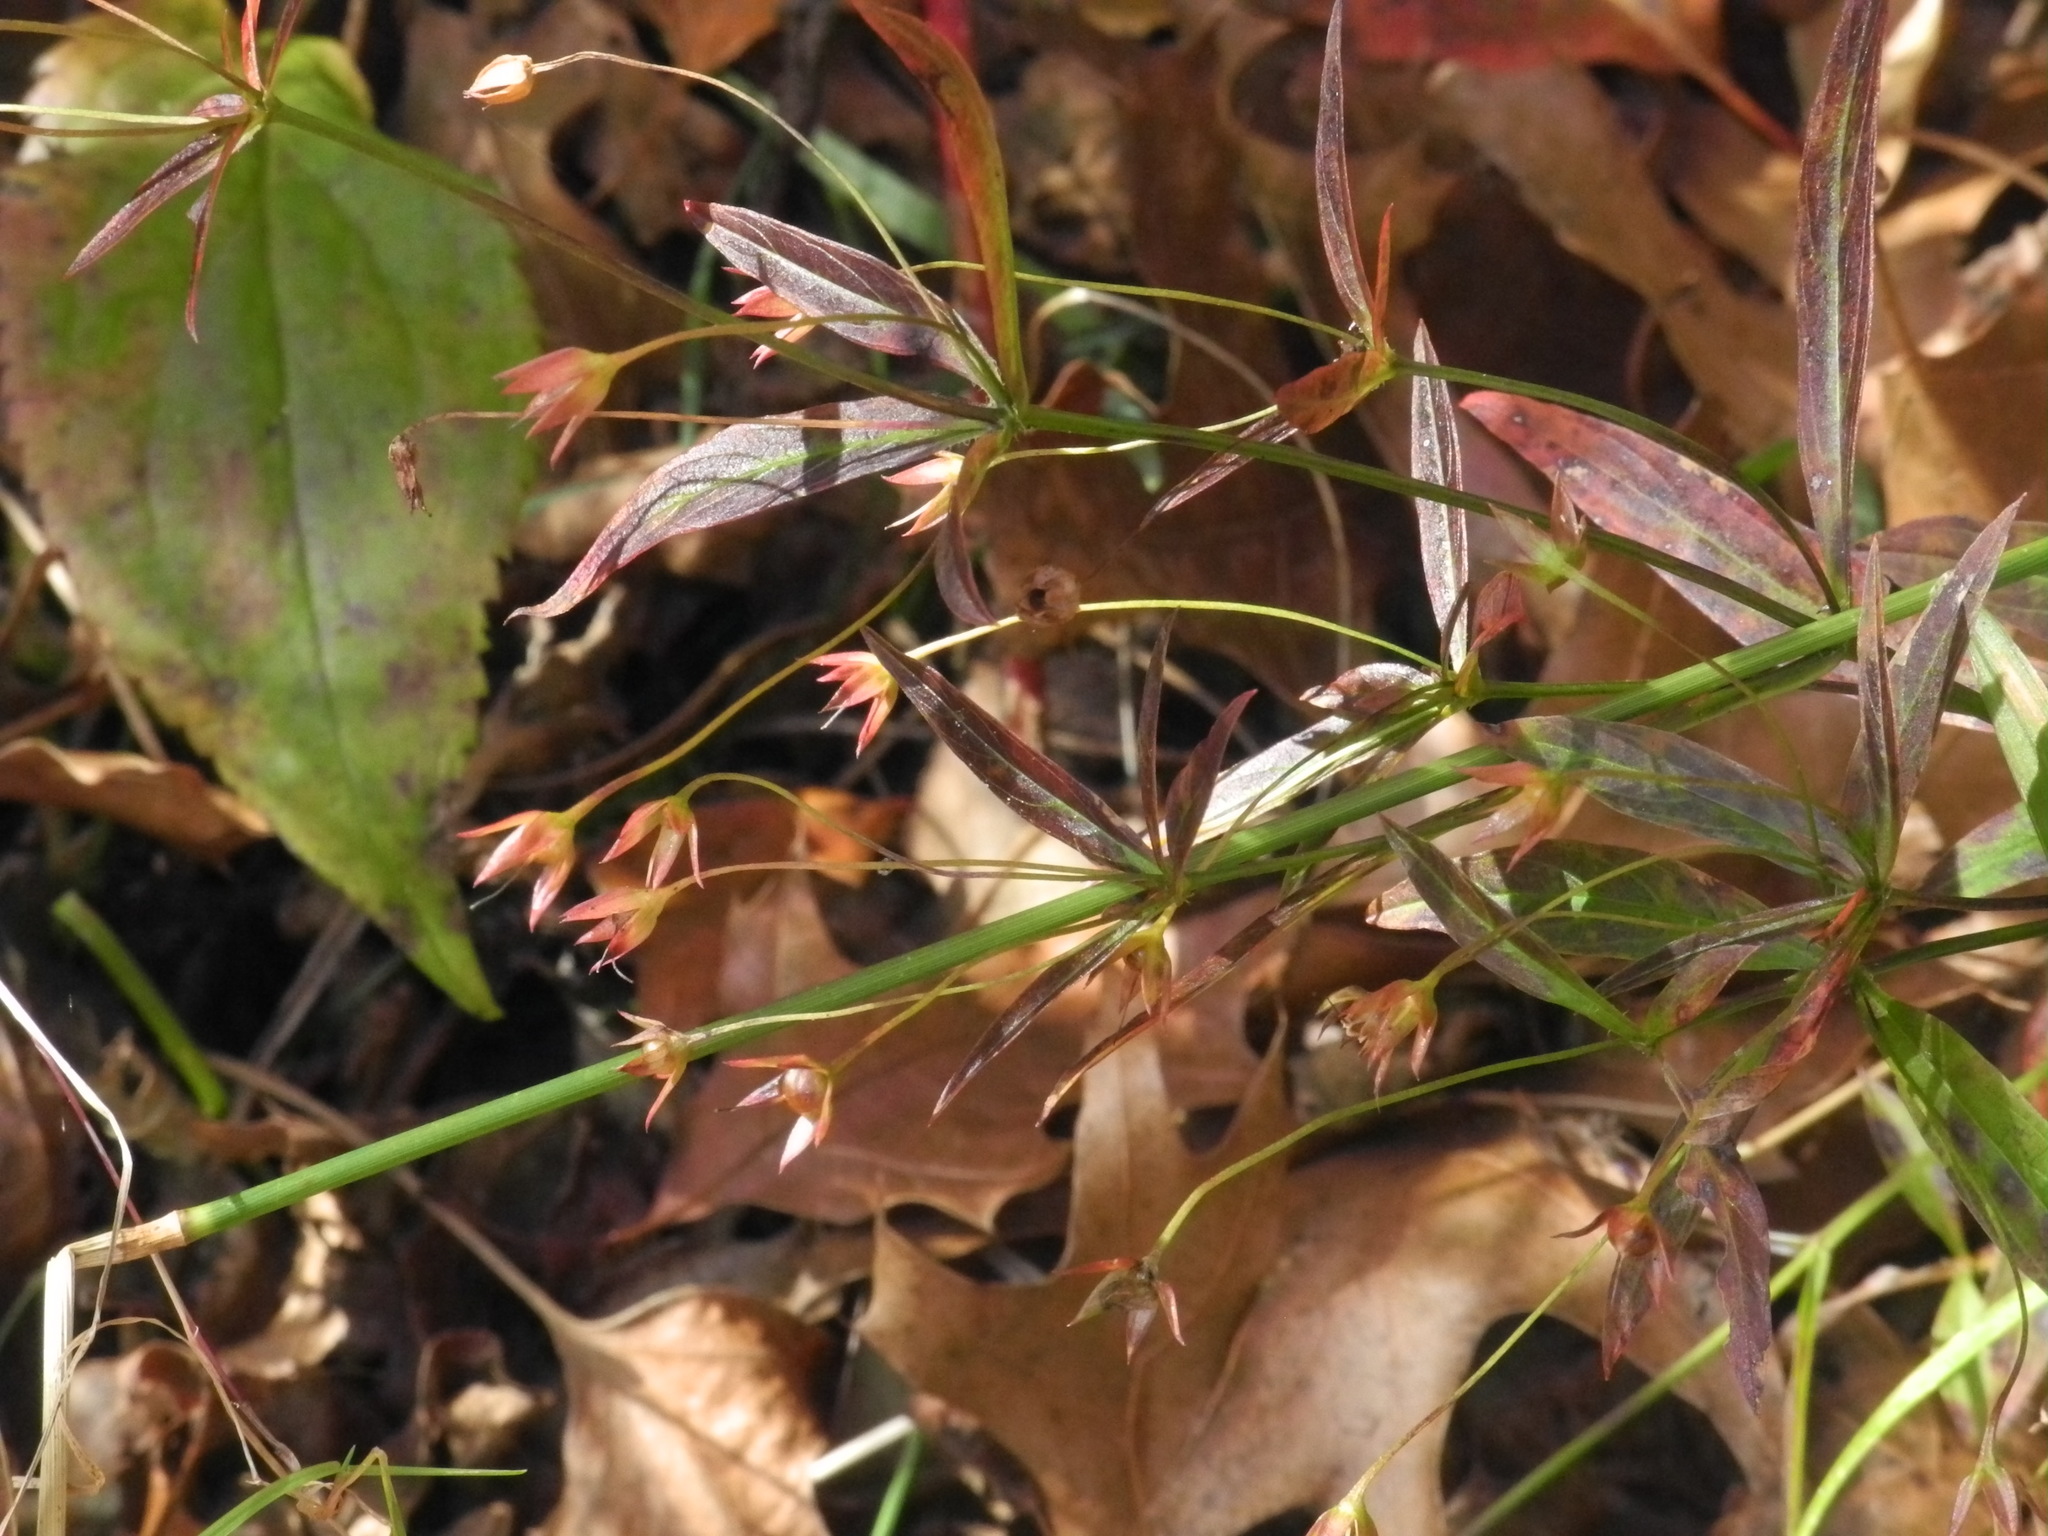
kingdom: Plantae
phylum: Tracheophyta
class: Magnoliopsida
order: Ericales
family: Primulaceae
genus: Lysimachia
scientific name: Lysimachia lanceolata
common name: Lance-leaved loosestrife
